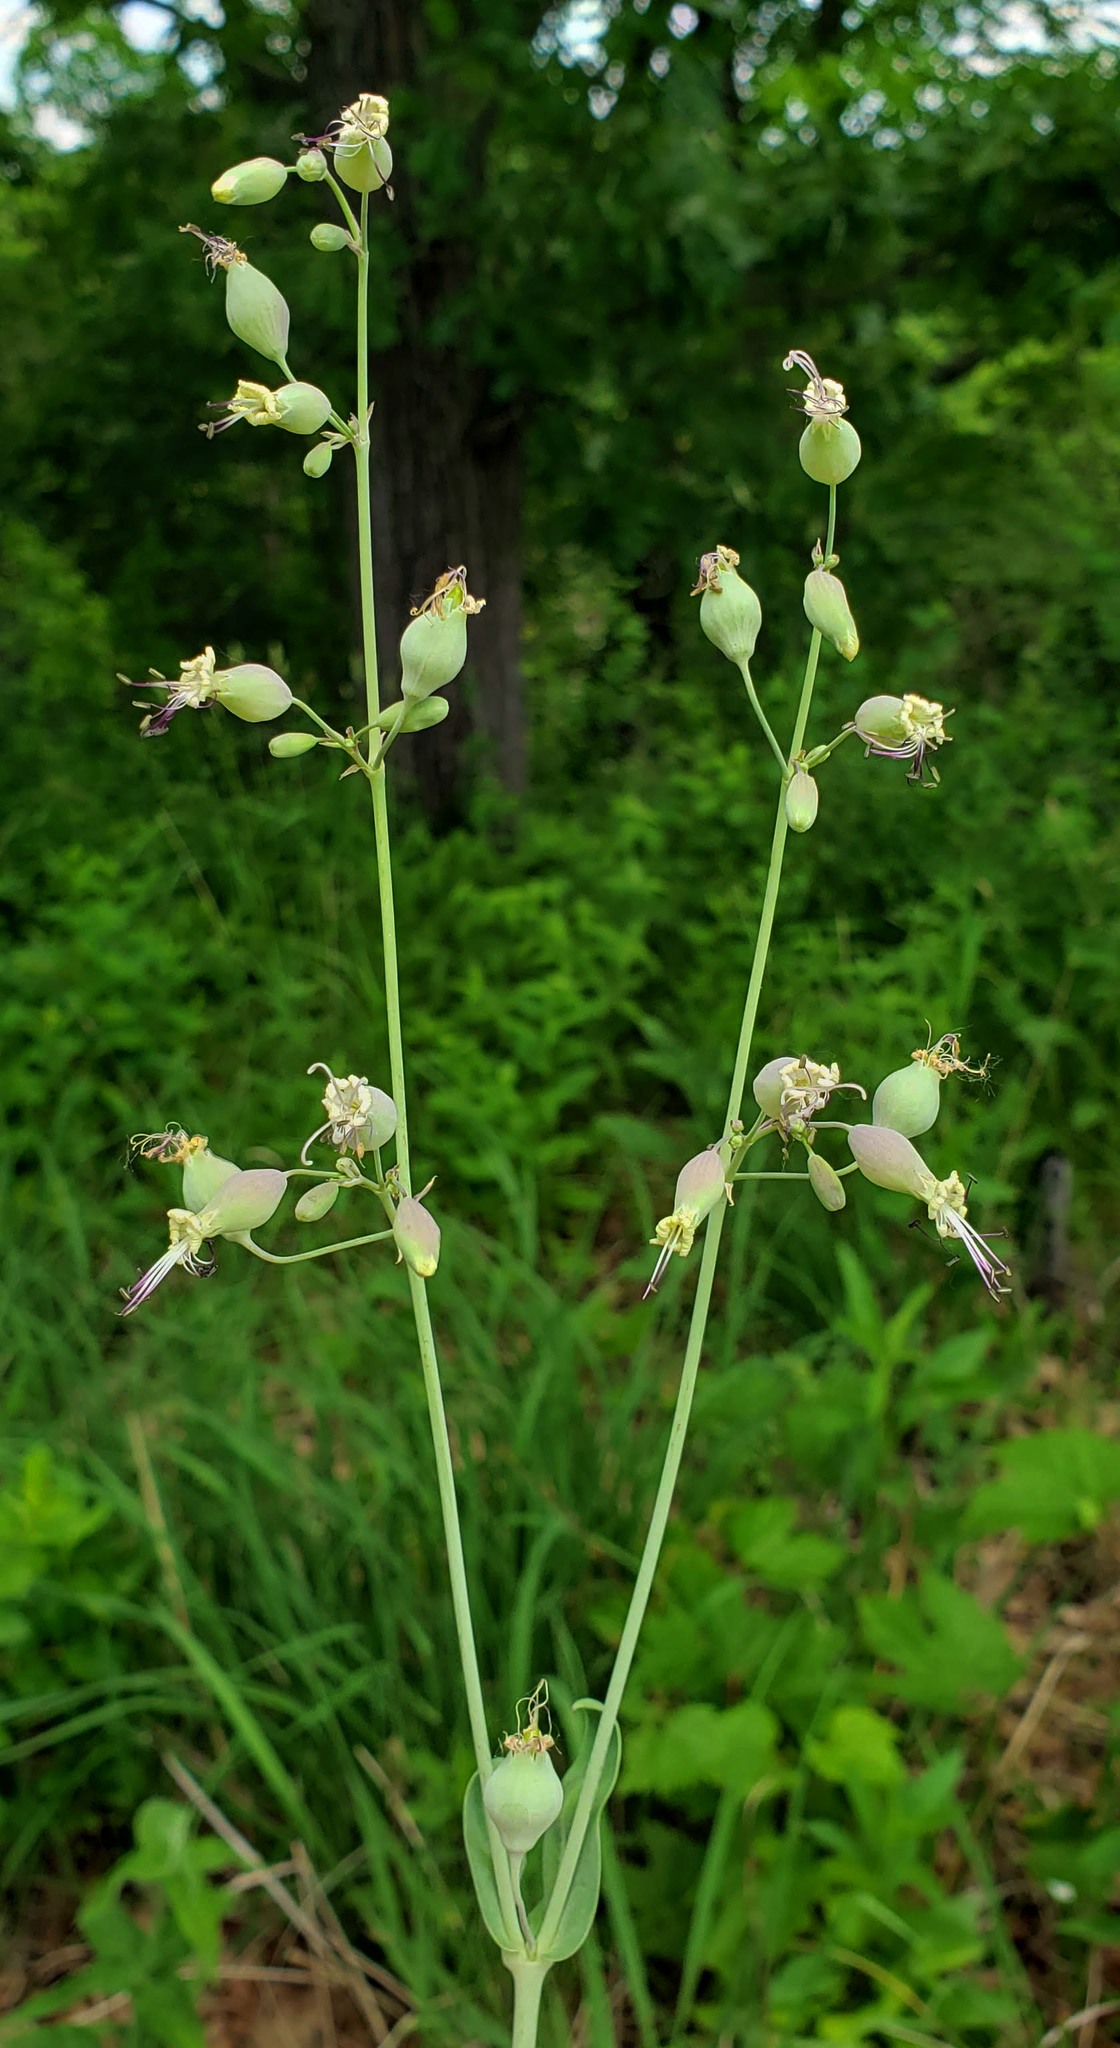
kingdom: Plantae
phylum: Tracheophyta
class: Magnoliopsida
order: Caryophyllales
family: Caryophyllaceae
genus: Silene
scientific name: Silene vulgaris
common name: Bladder campion
